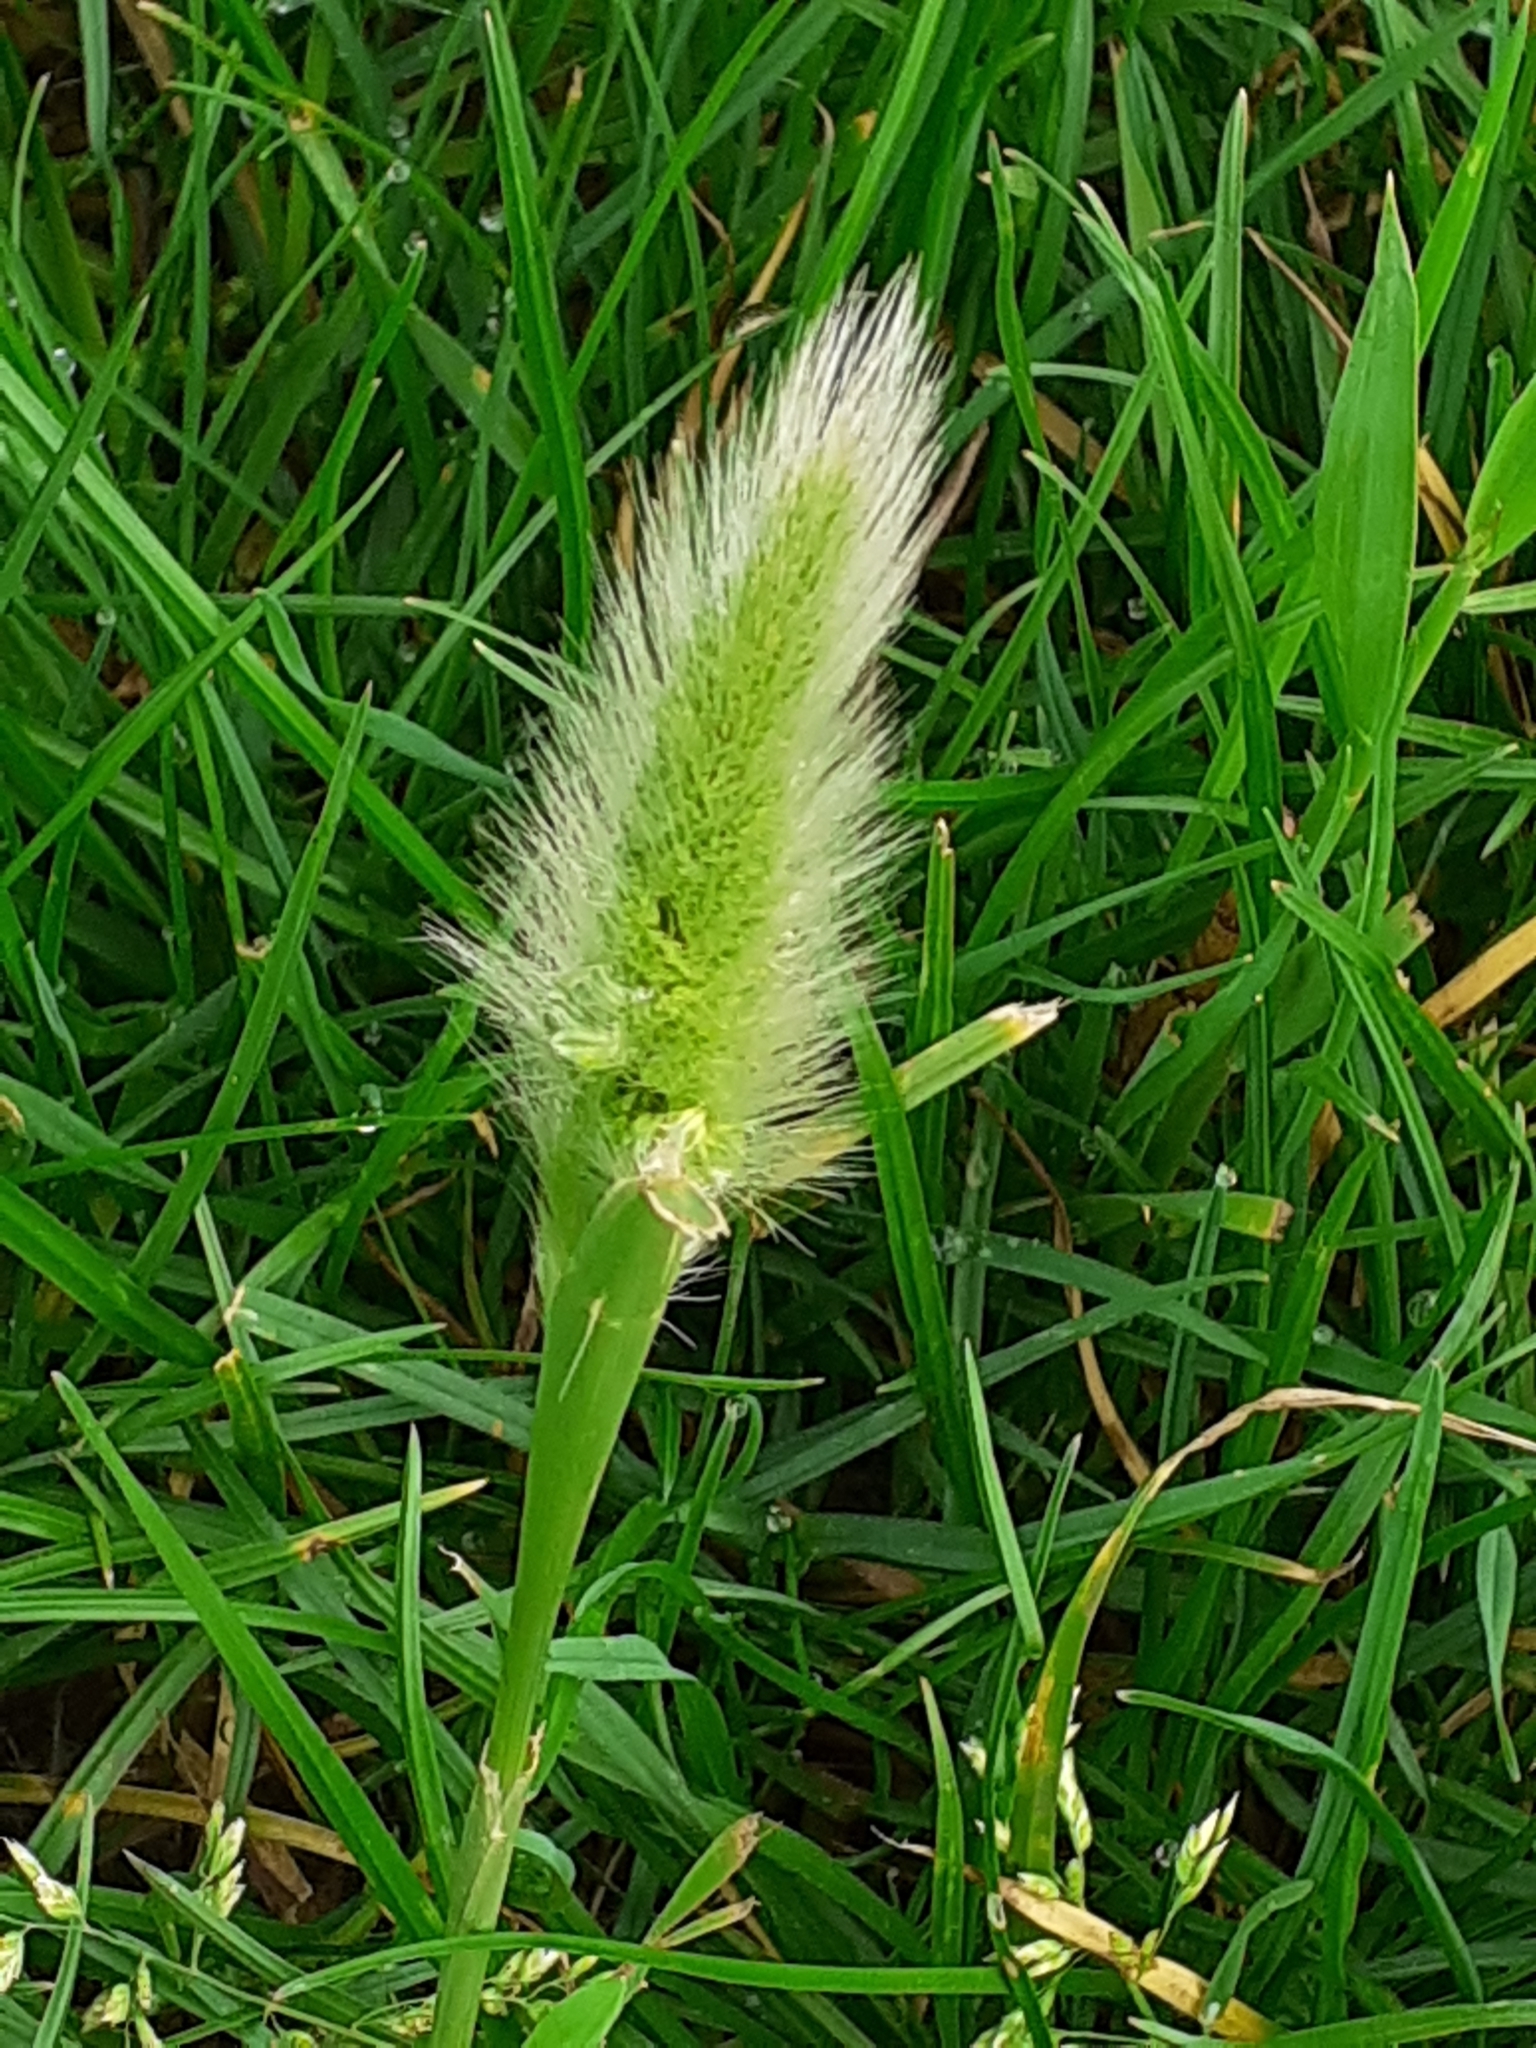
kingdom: Plantae
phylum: Tracheophyta
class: Liliopsida
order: Poales
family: Poaceae
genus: Polypogon
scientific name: Polypogon monspeliensis
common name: Annual rabbitsfoot grass
